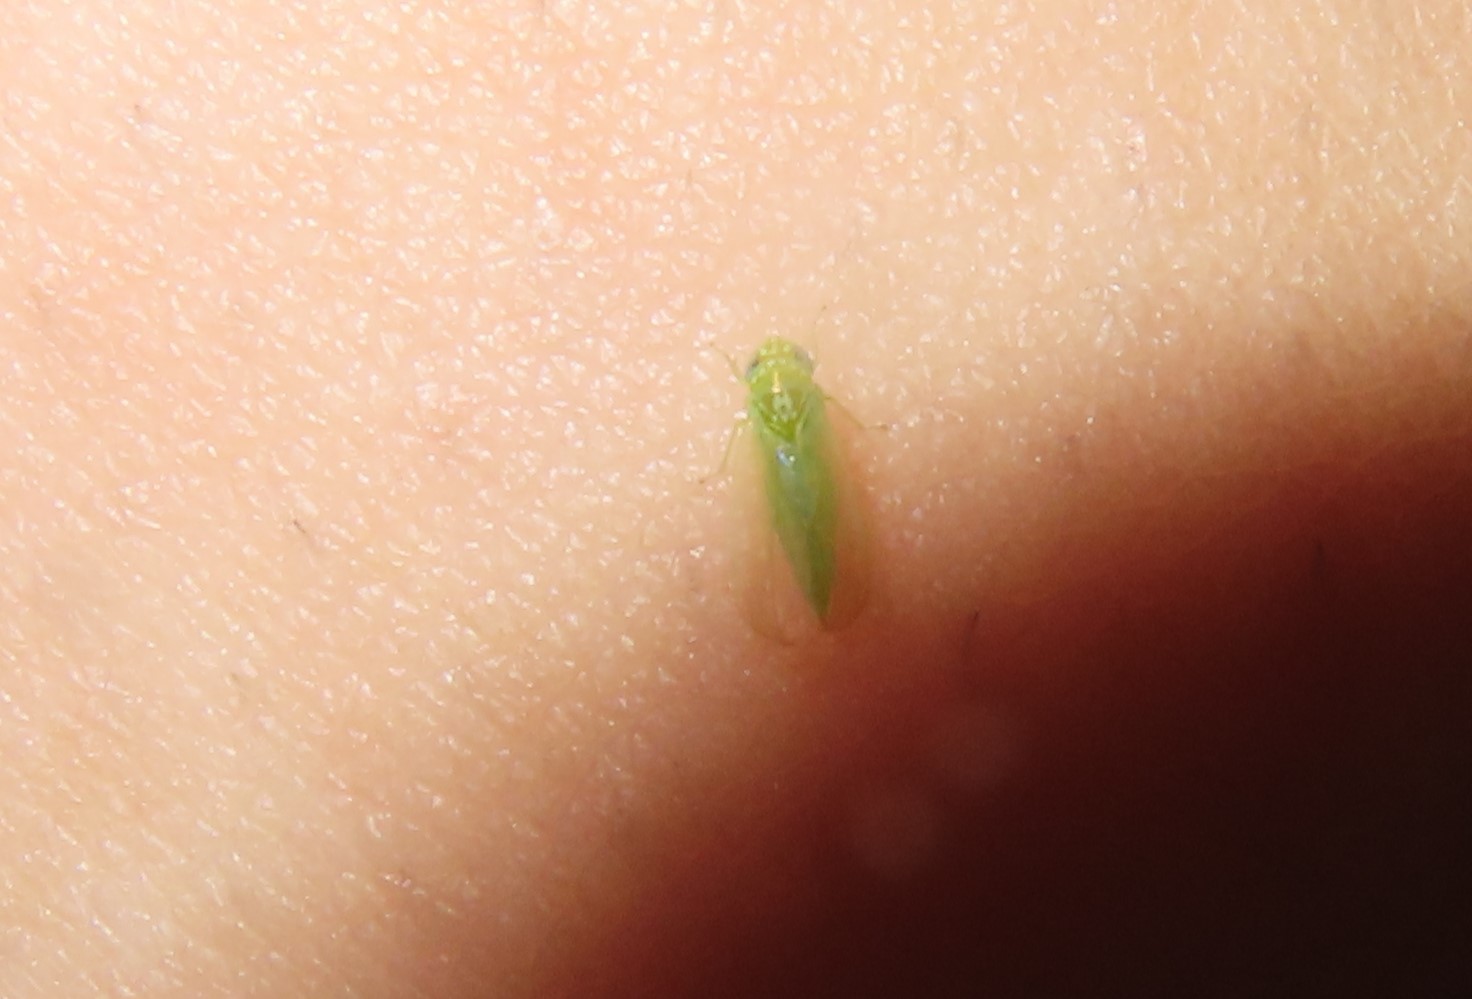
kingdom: Animalia
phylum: Arthropoda
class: Insecta
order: Hemiptera
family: Cicadellidae
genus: Empoasca
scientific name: Empoasca fabae
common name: Potato leafhopper
